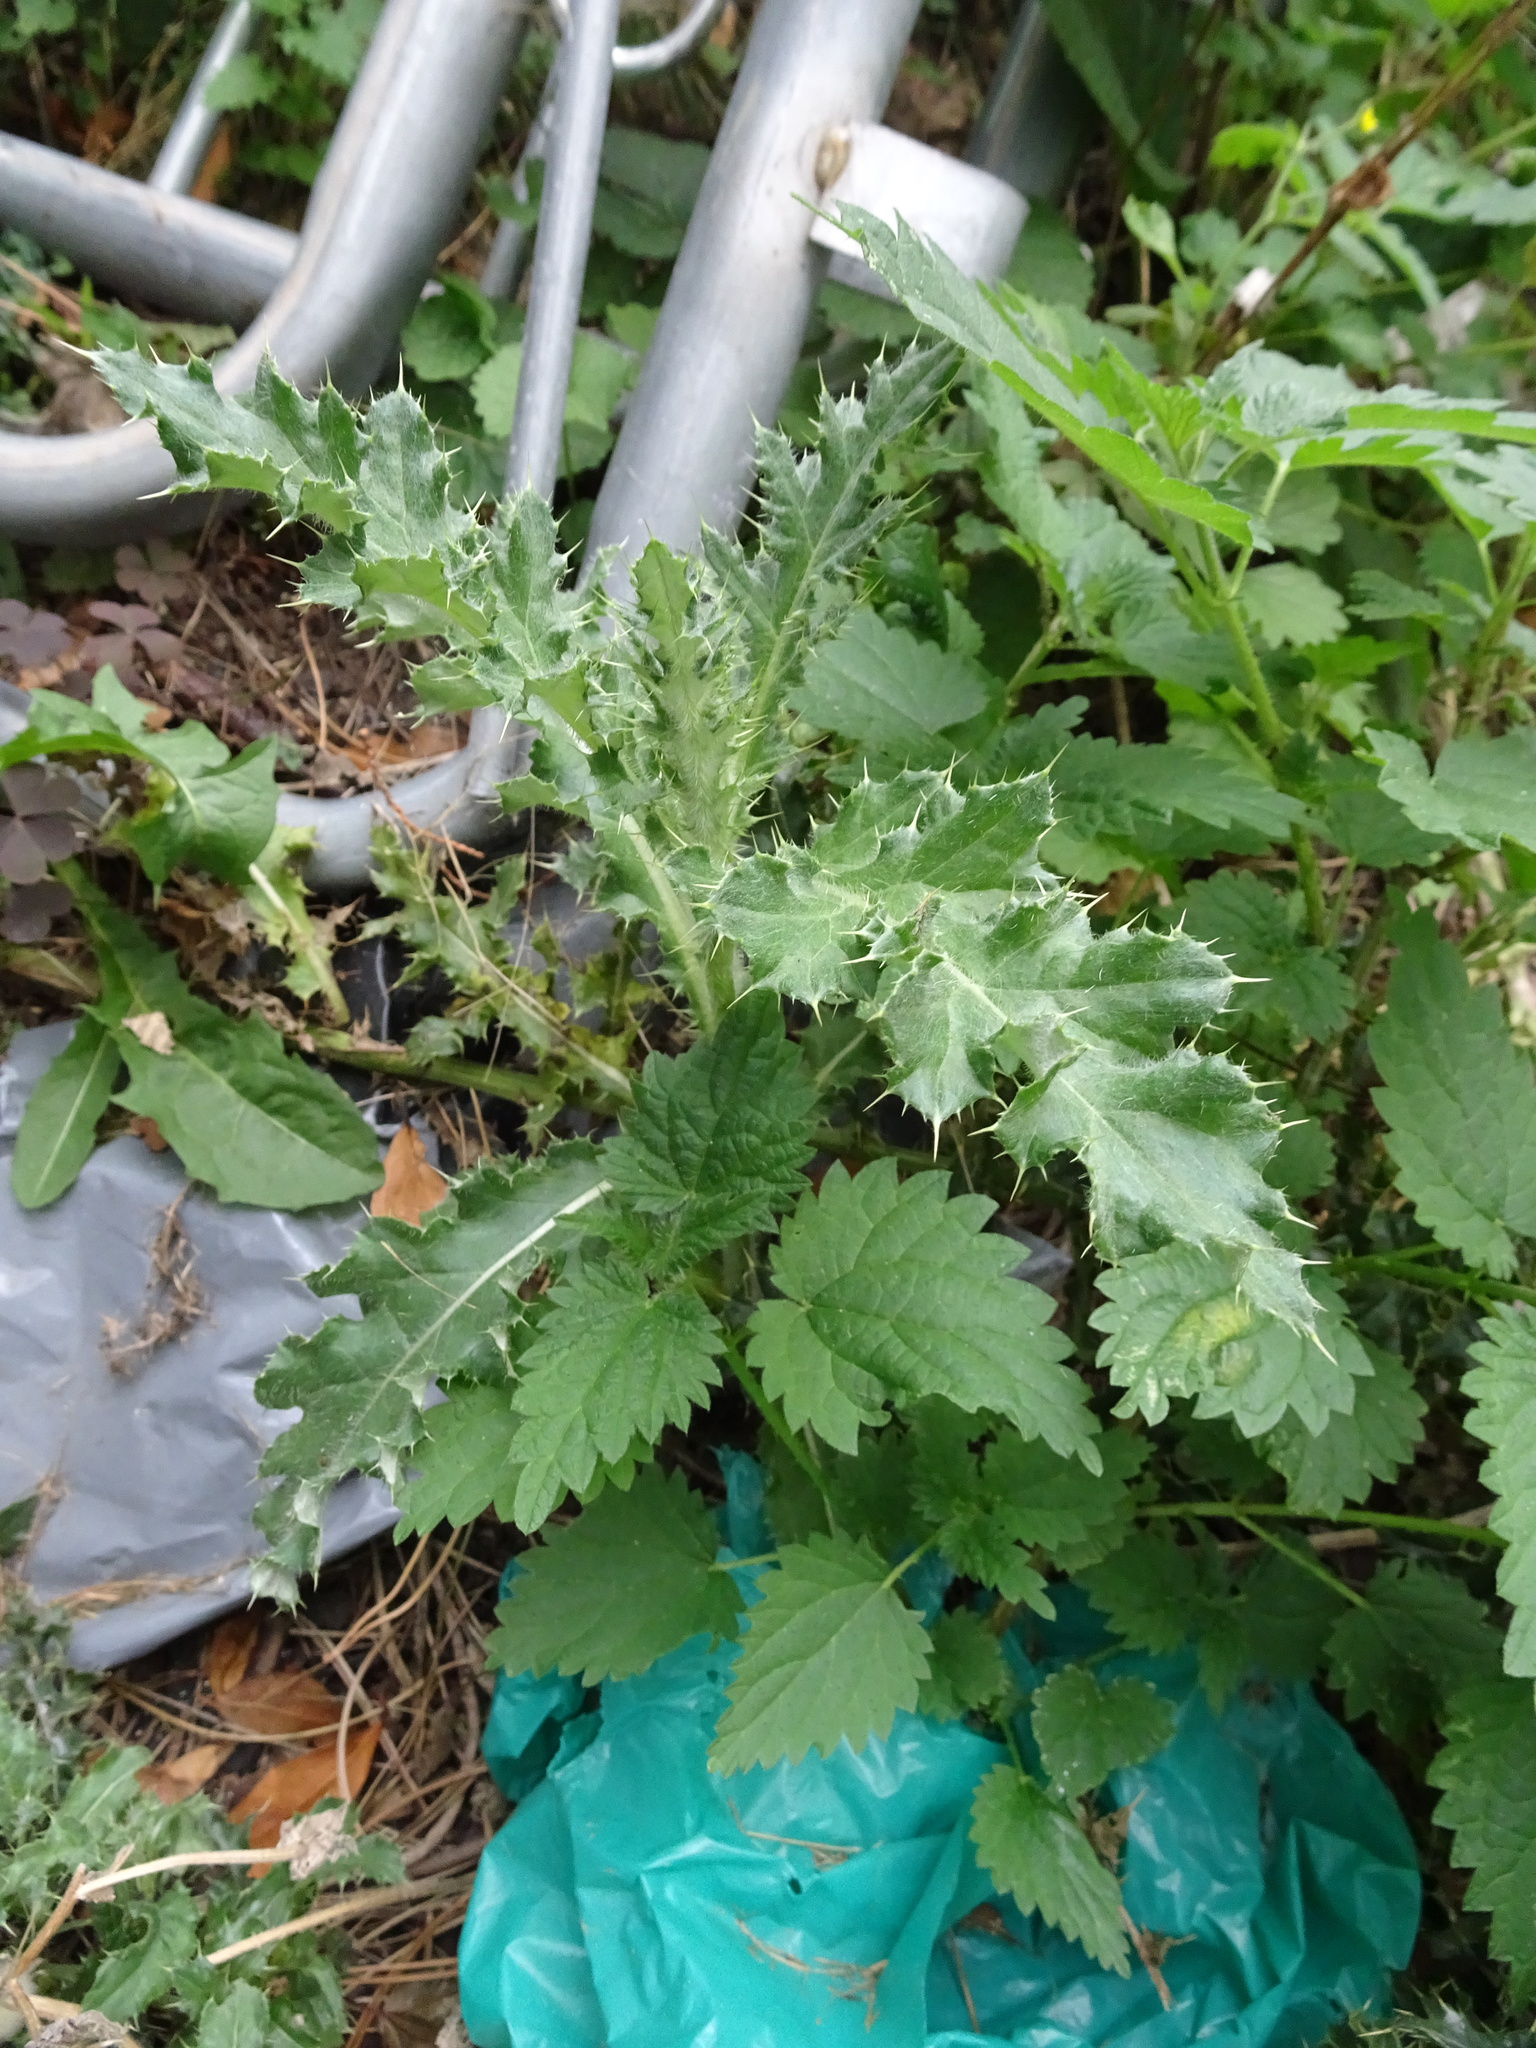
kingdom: Plantae
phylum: Tracheophyta
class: Magnoliopsida
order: Asterales
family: Asteraceae
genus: Cirsium
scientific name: Cirsium arvense
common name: Creeping thistle
